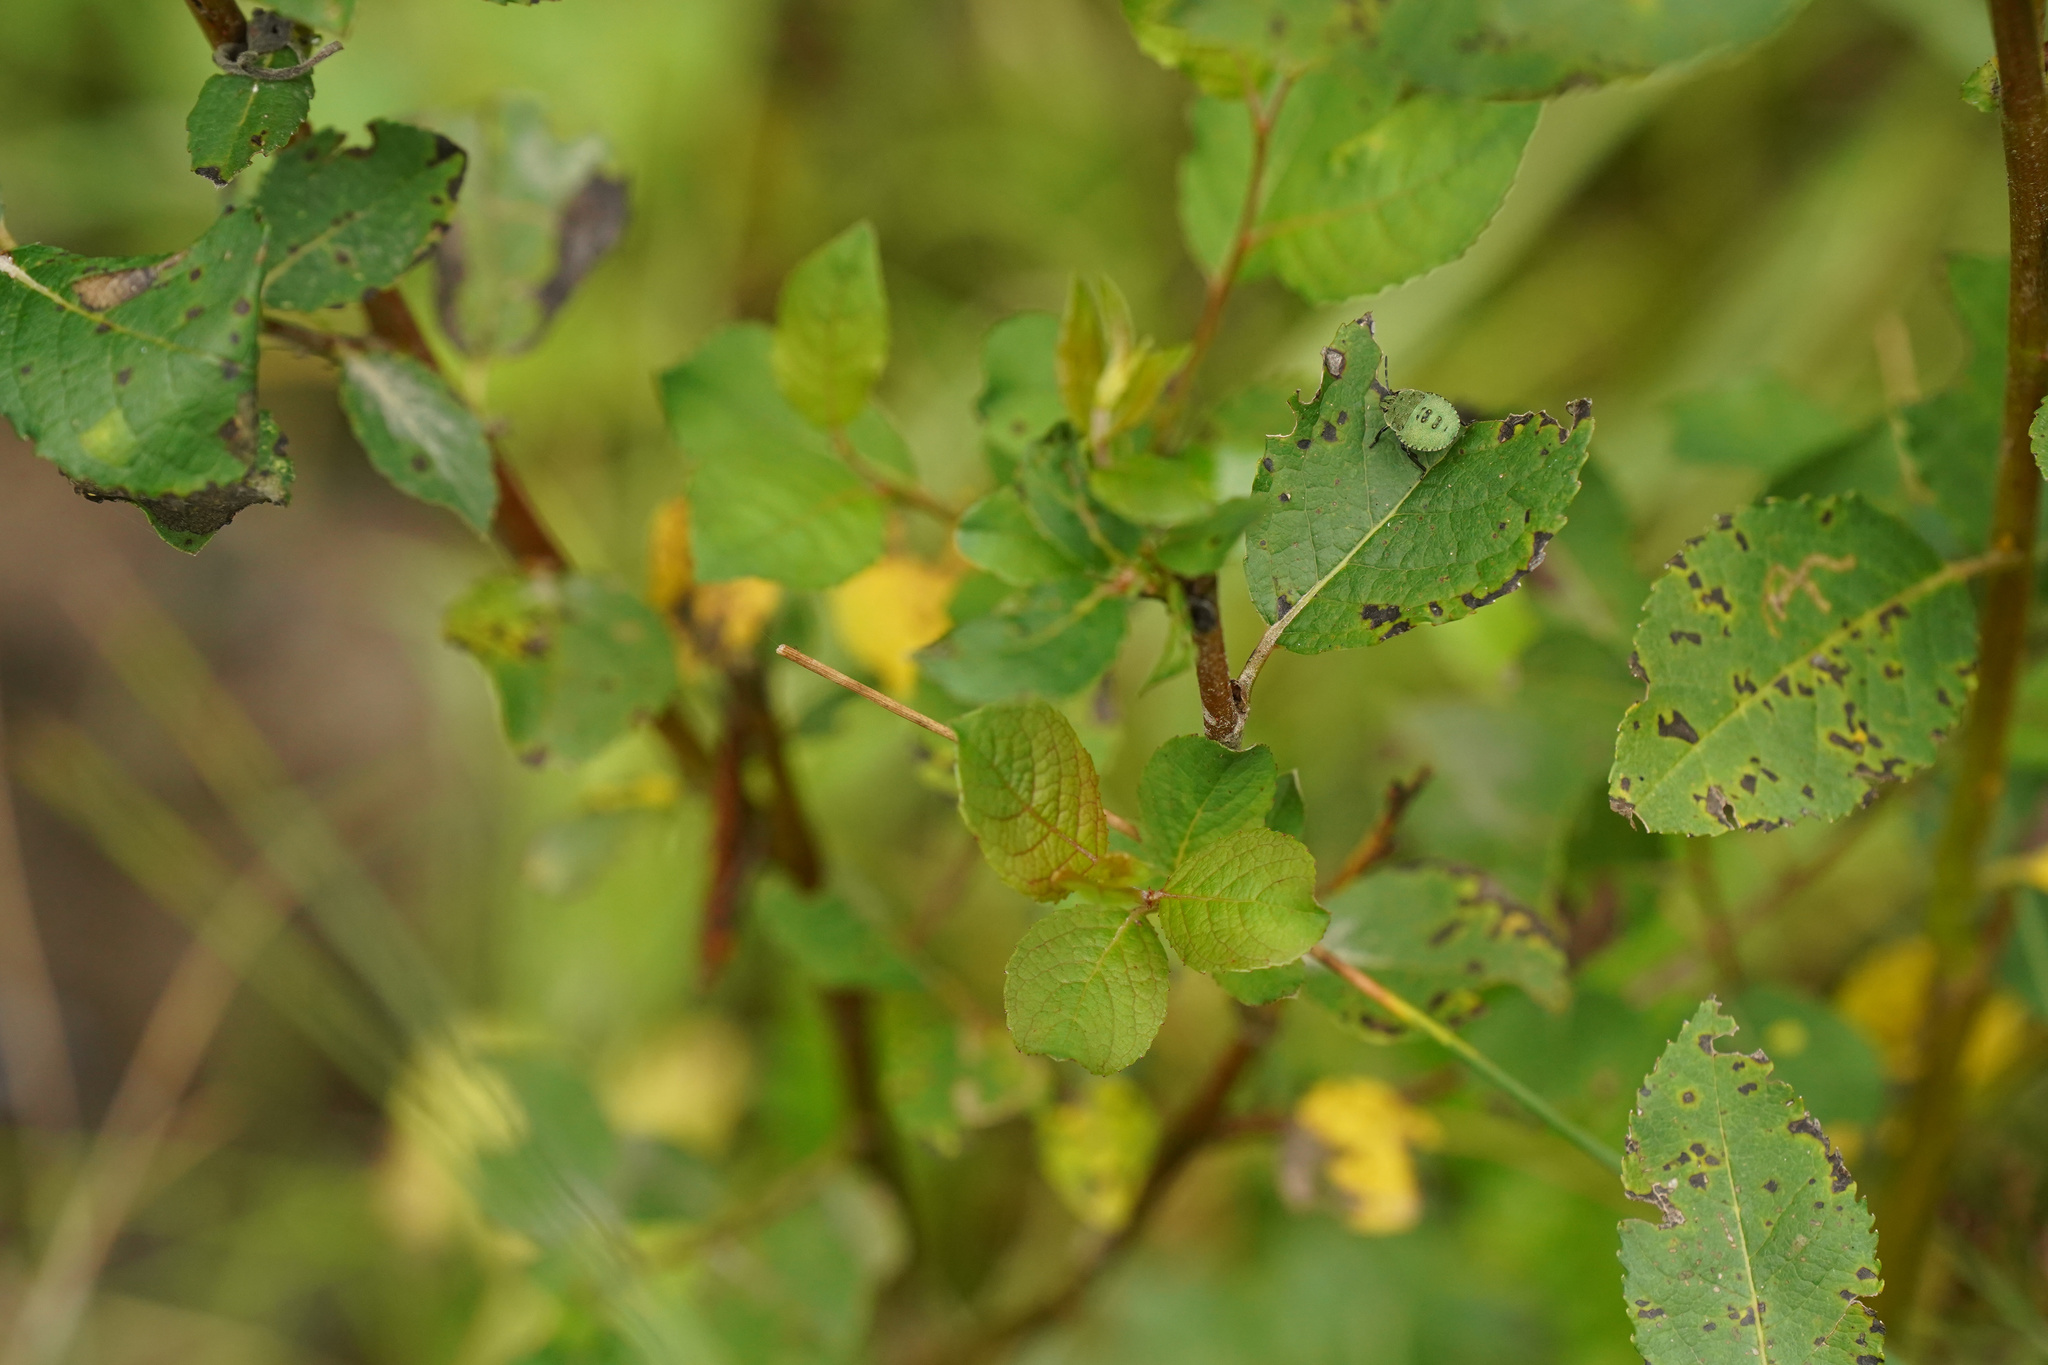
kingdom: Animalia
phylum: Arthropoda
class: Insecta
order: Hemiptera
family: Pentatomidae
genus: Palomena
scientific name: Palomena prasina
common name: Green shieldbug
